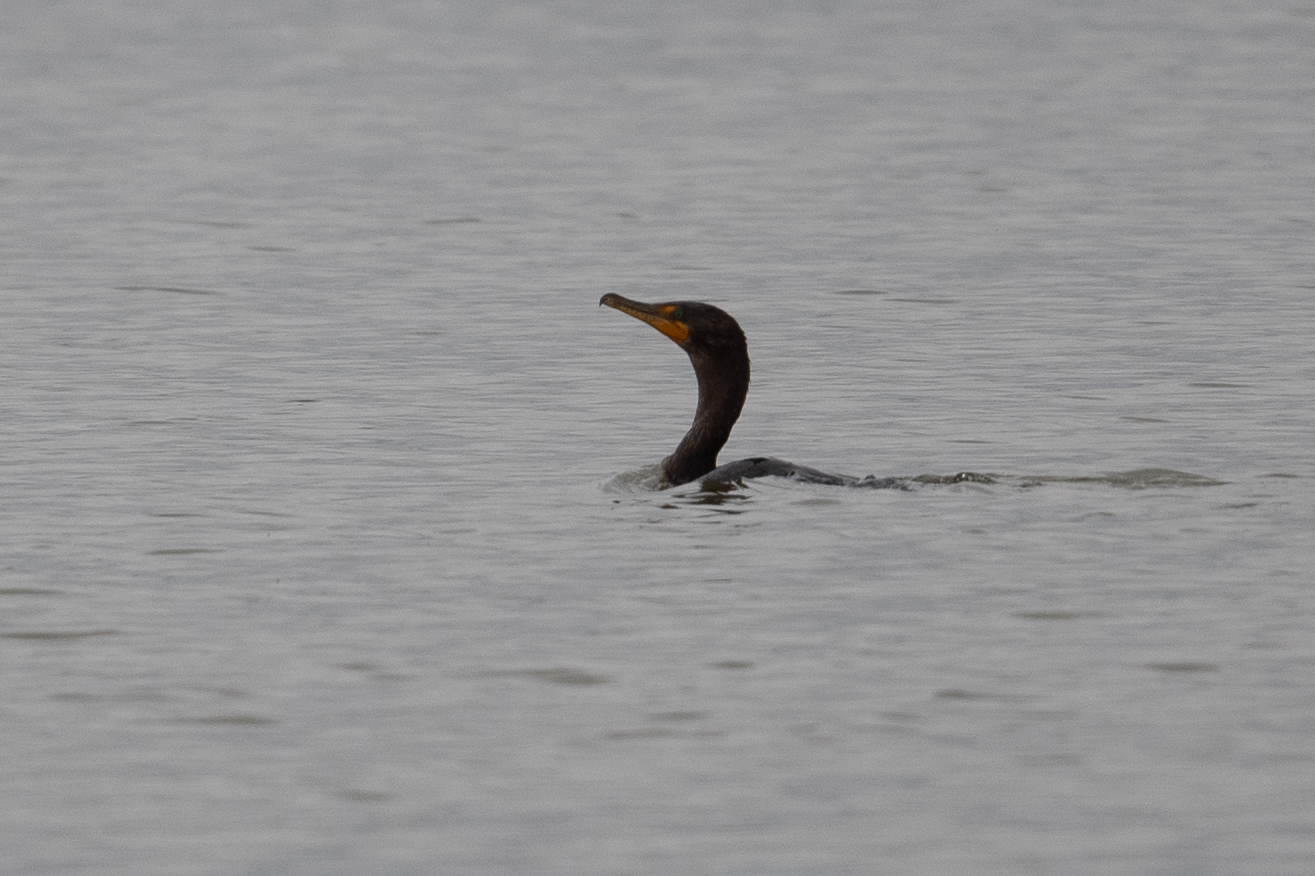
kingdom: Animalia
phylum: Chordata
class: Aves
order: Suliformes
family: Phalacrocoracidae
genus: Phalacrocorax
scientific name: Phalacrocorax auritus
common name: Double-crested cormorant
